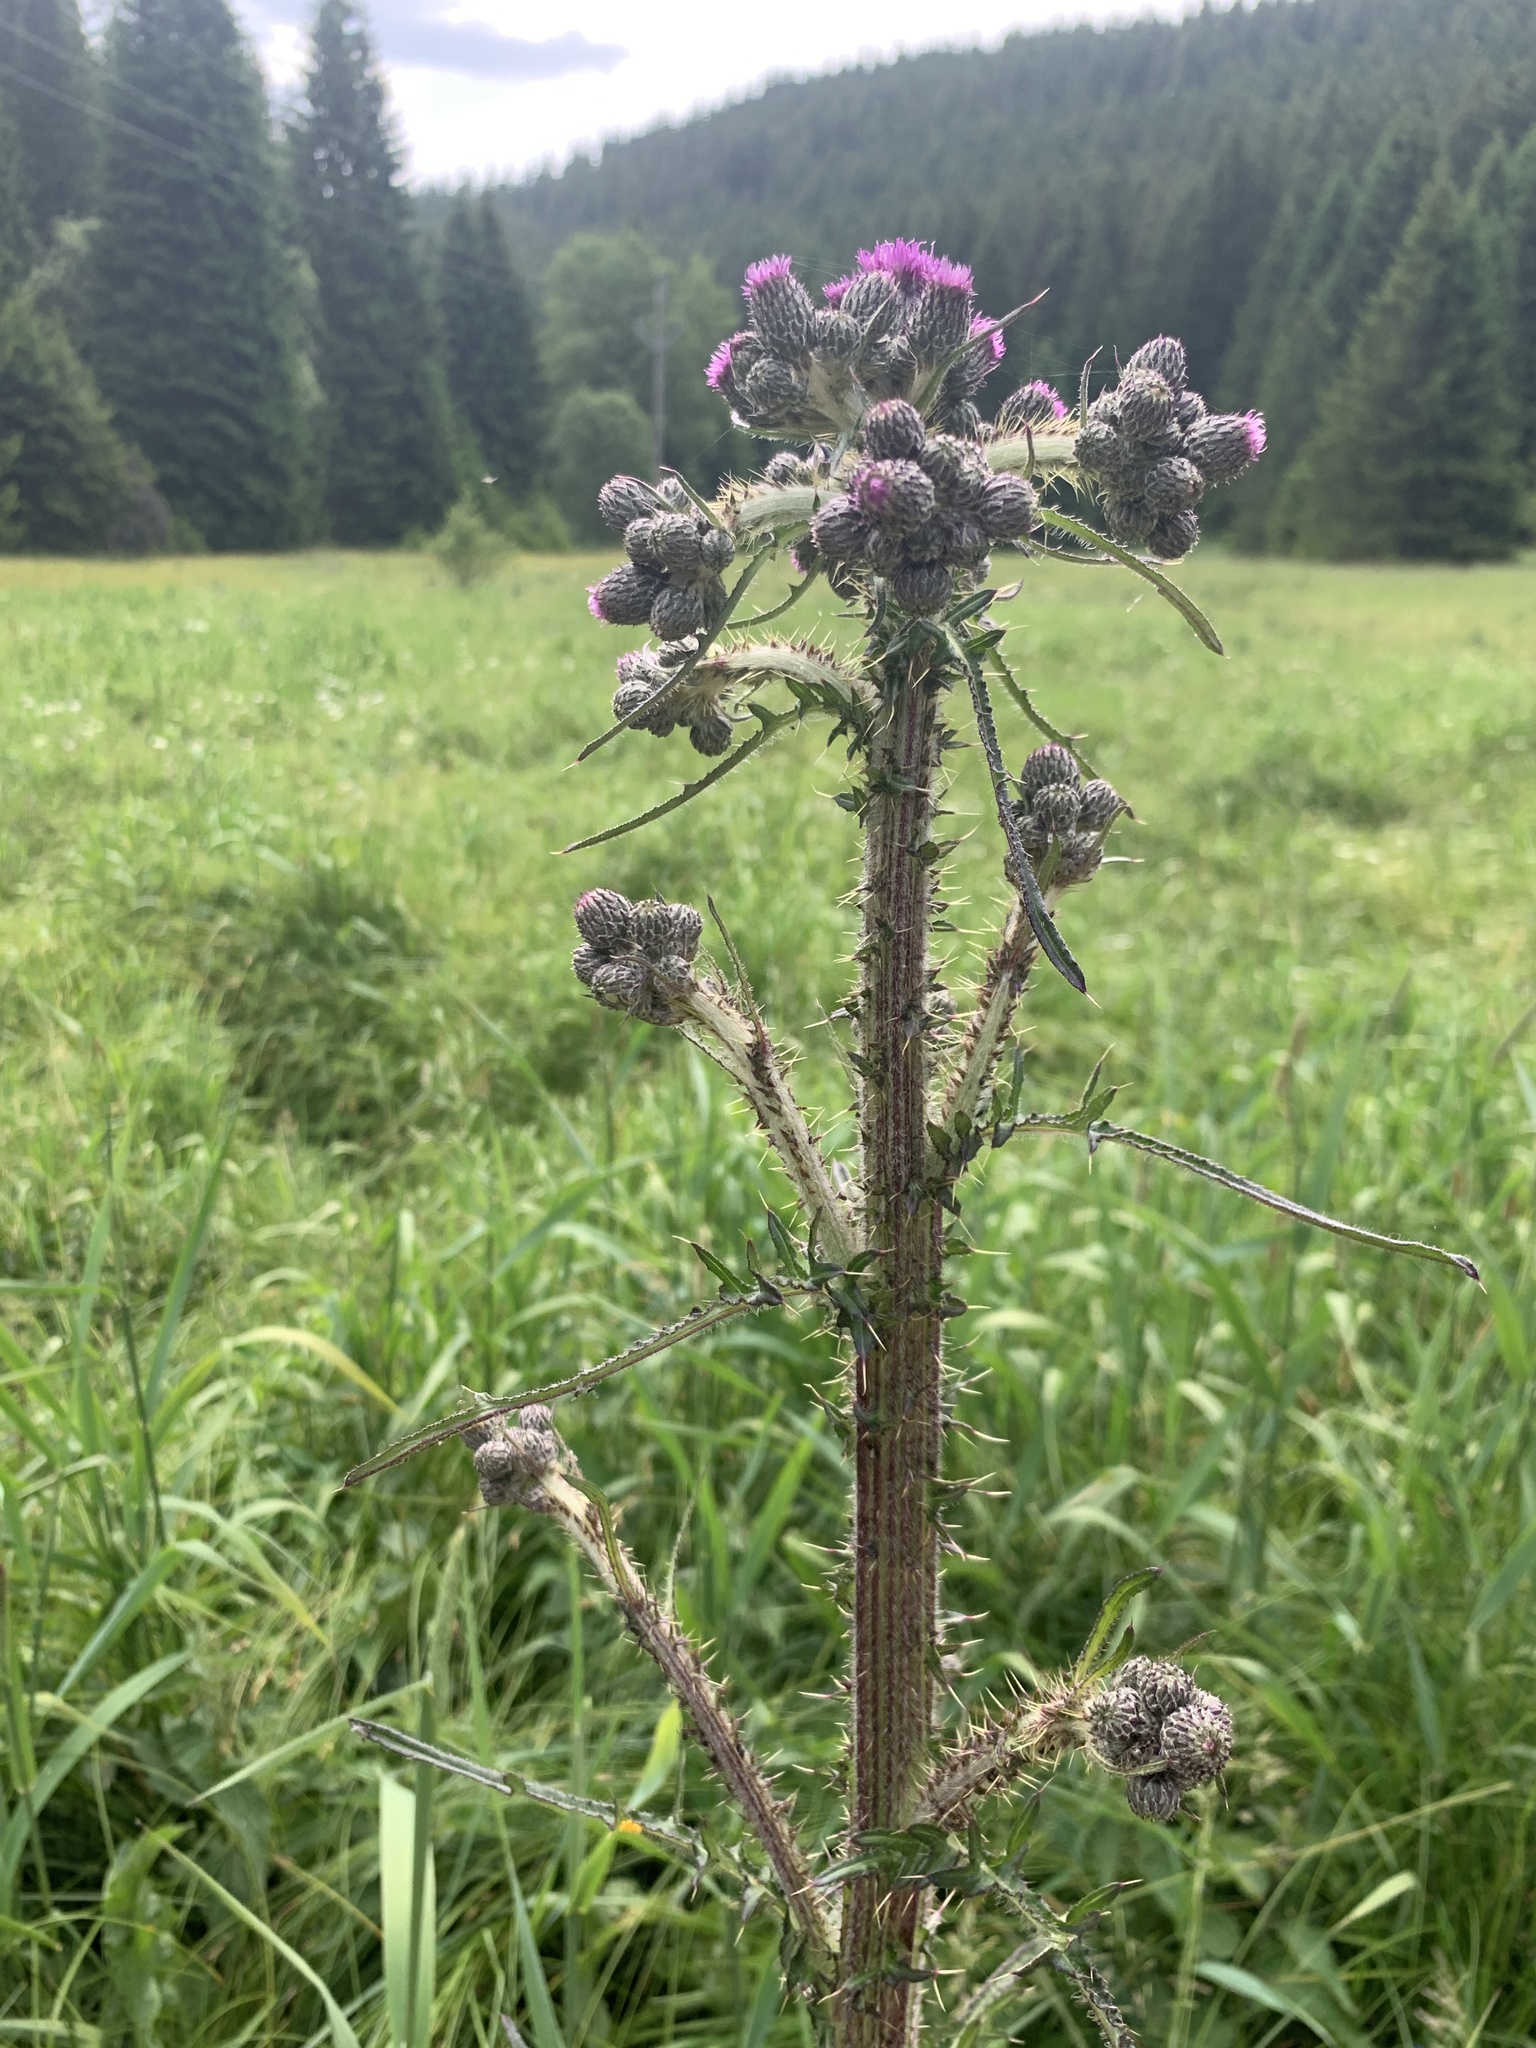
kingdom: Plantae
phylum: Tracheophyta
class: Magnoliopsida
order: Asterales
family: Asteraceae
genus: Cirsium
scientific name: Cirsium palustre
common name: Marsh thistle
